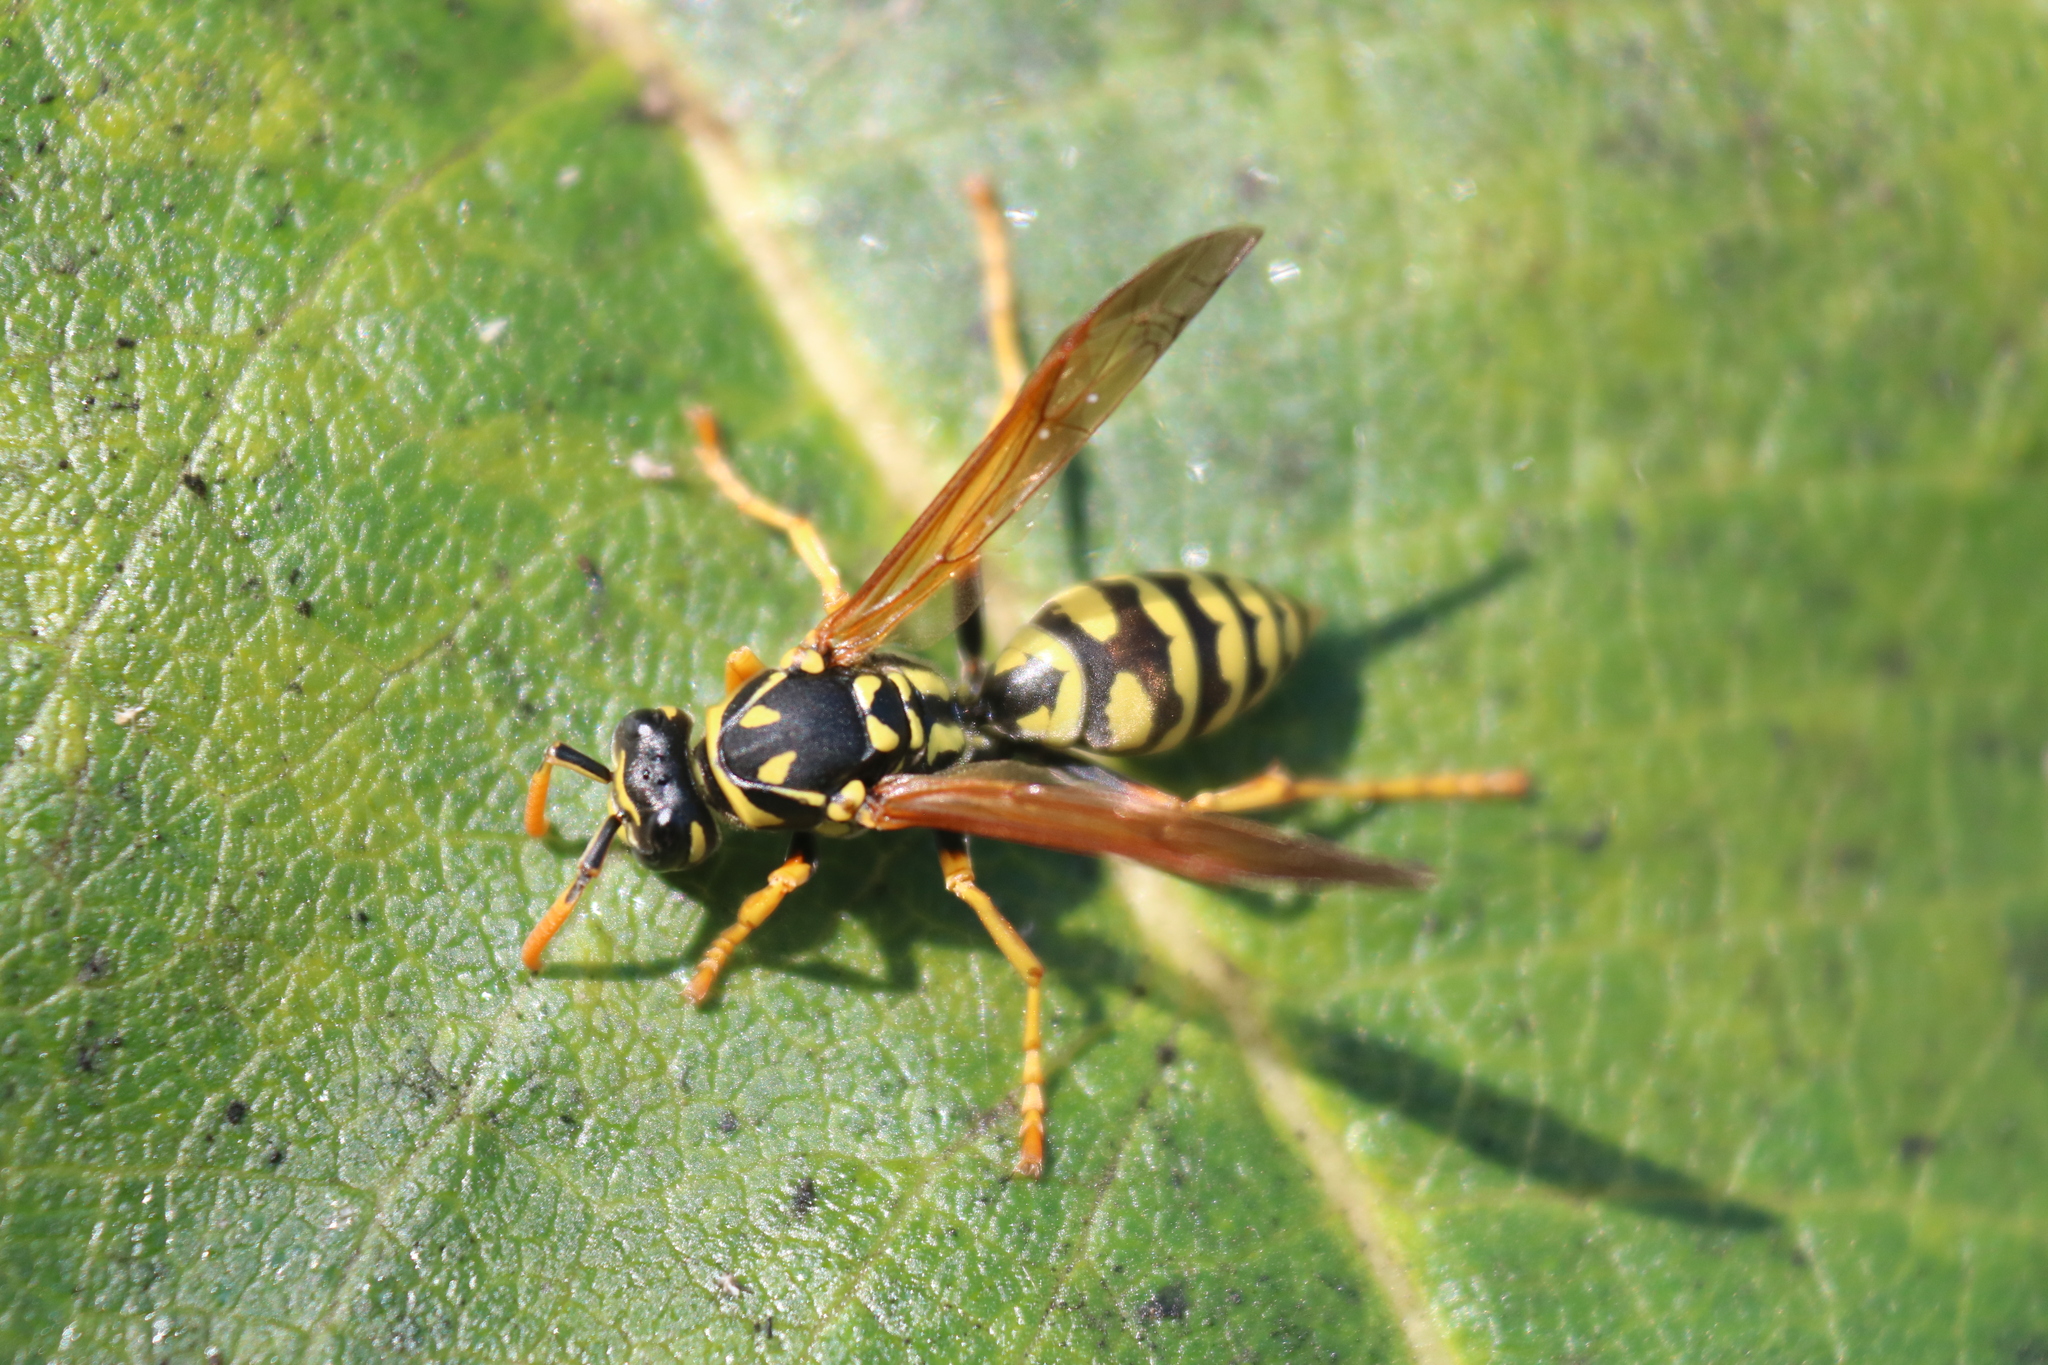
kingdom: Animalia
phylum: Arthropoda
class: Insecta
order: Hymenoptera
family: Eumenidae
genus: Polistes
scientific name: Polistes dominula
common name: Paper wasp
